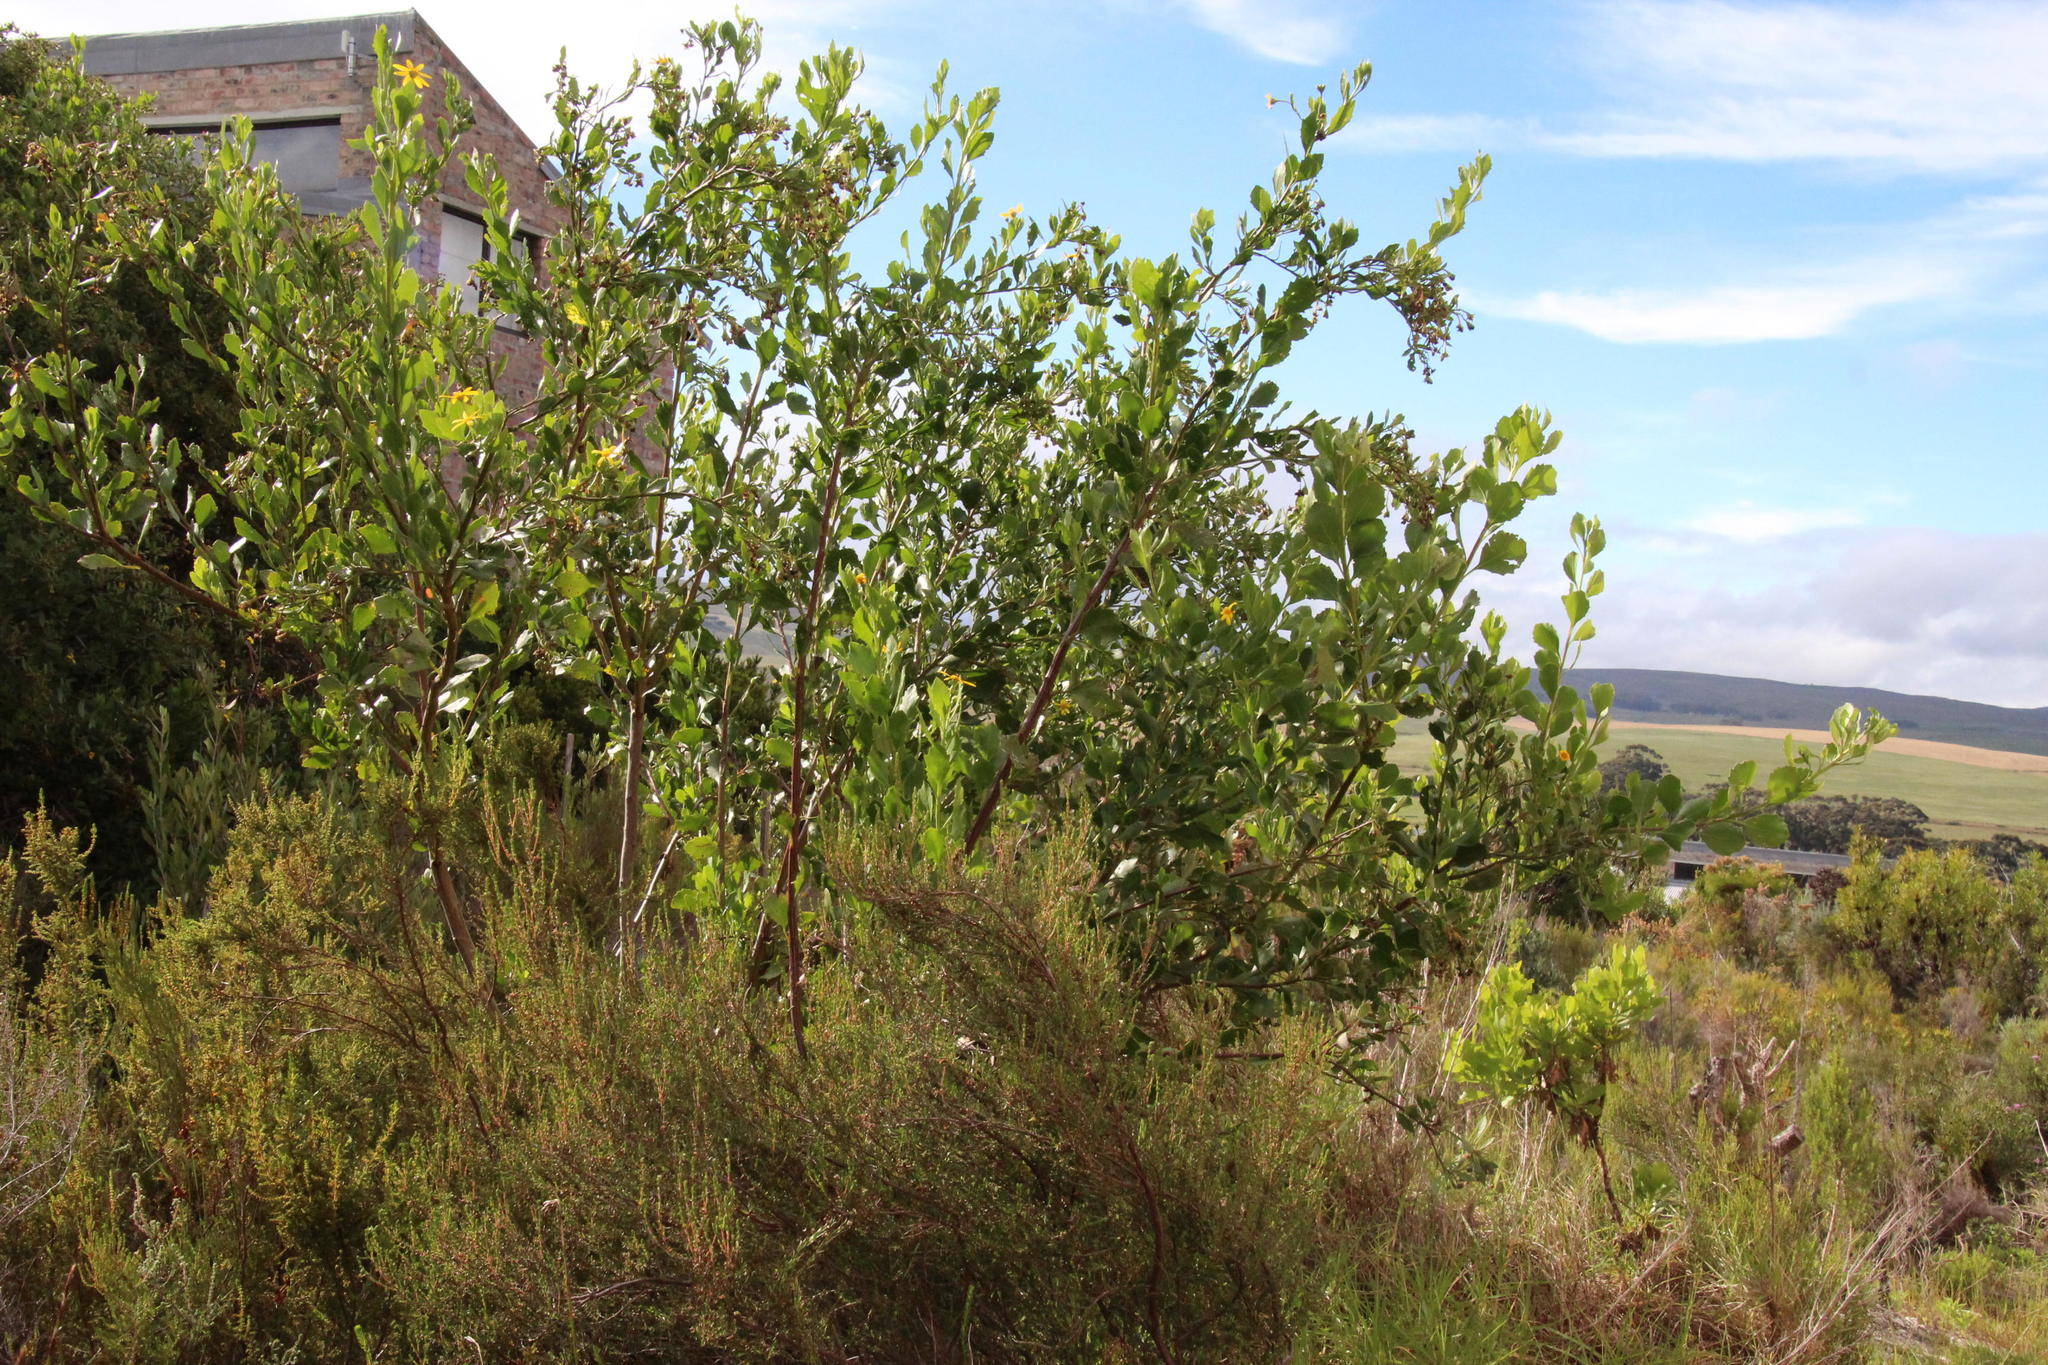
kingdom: Plantae
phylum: Tracheophyta
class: Magnoliopsida
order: Asterales
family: Asteraceae
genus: Osteospermum
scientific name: Osteospermum moniliferum
